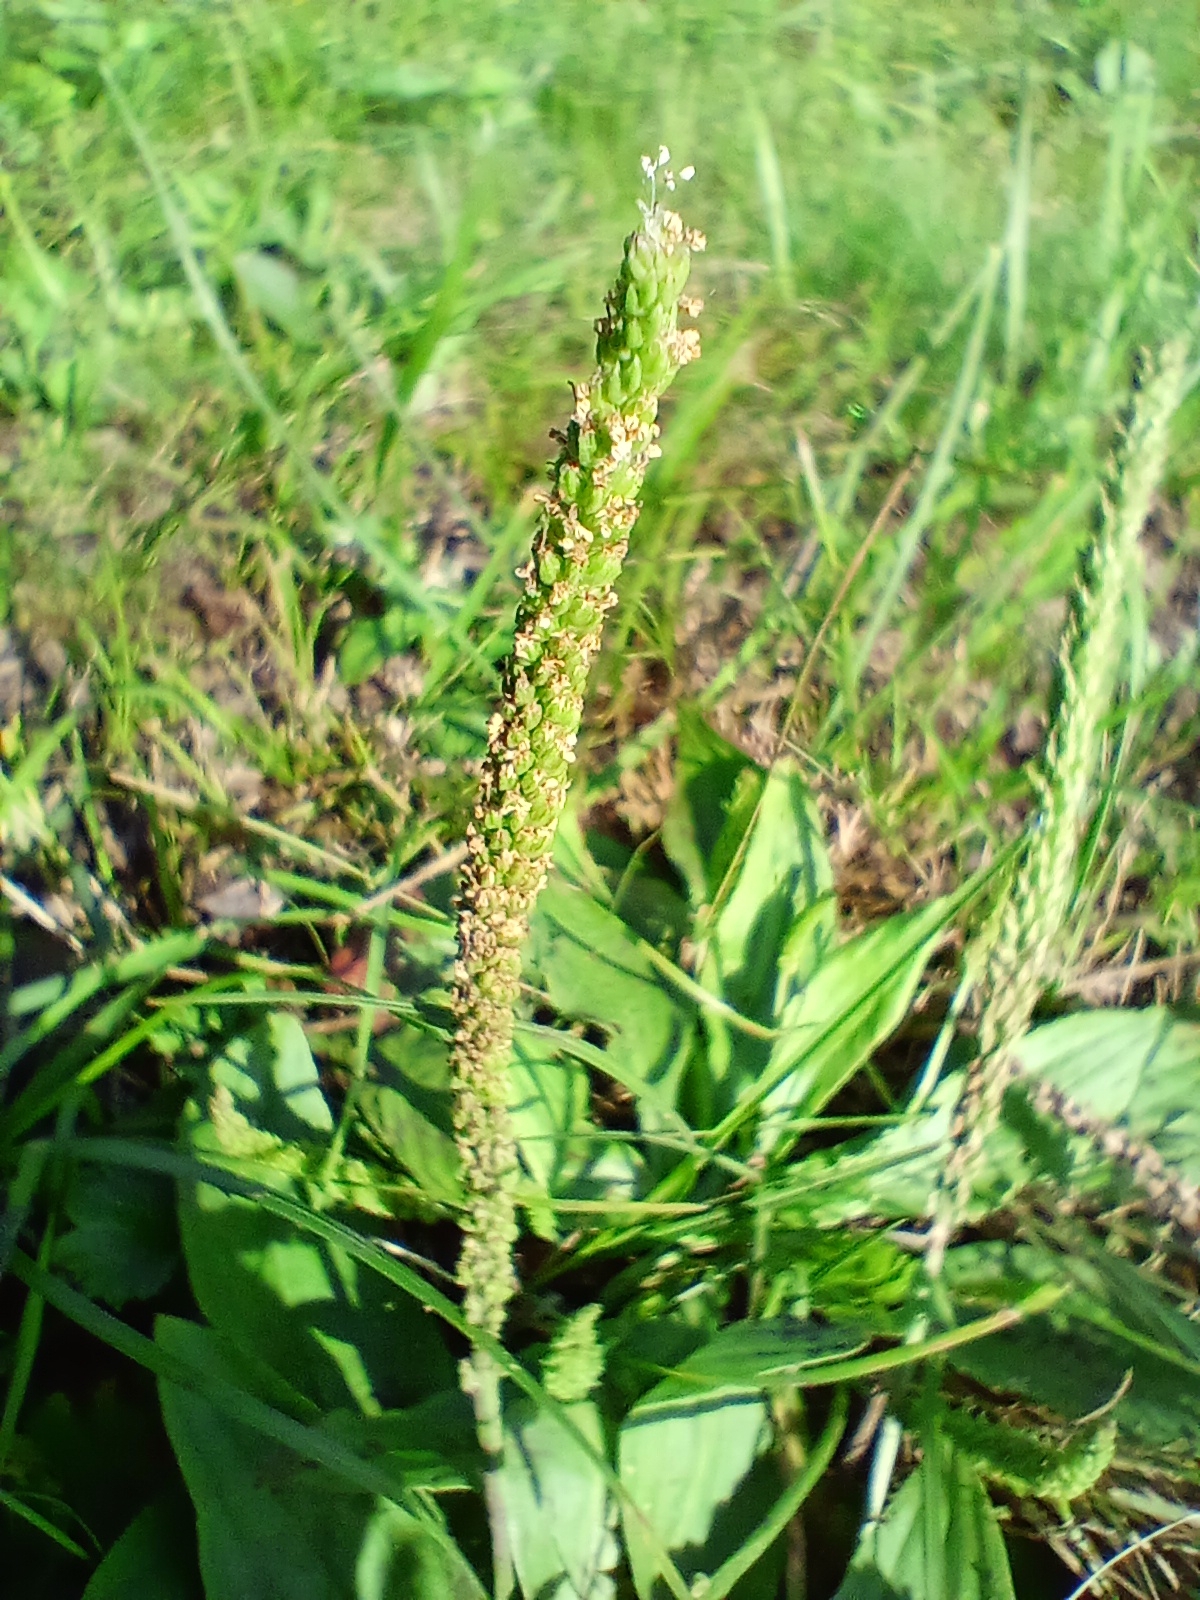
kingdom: Plantae
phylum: Tracheophyta
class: Magnoliopsida
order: Lamiales
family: Plantaginaceae
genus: Plantago
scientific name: Plantago depressa
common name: Depressed plantain
